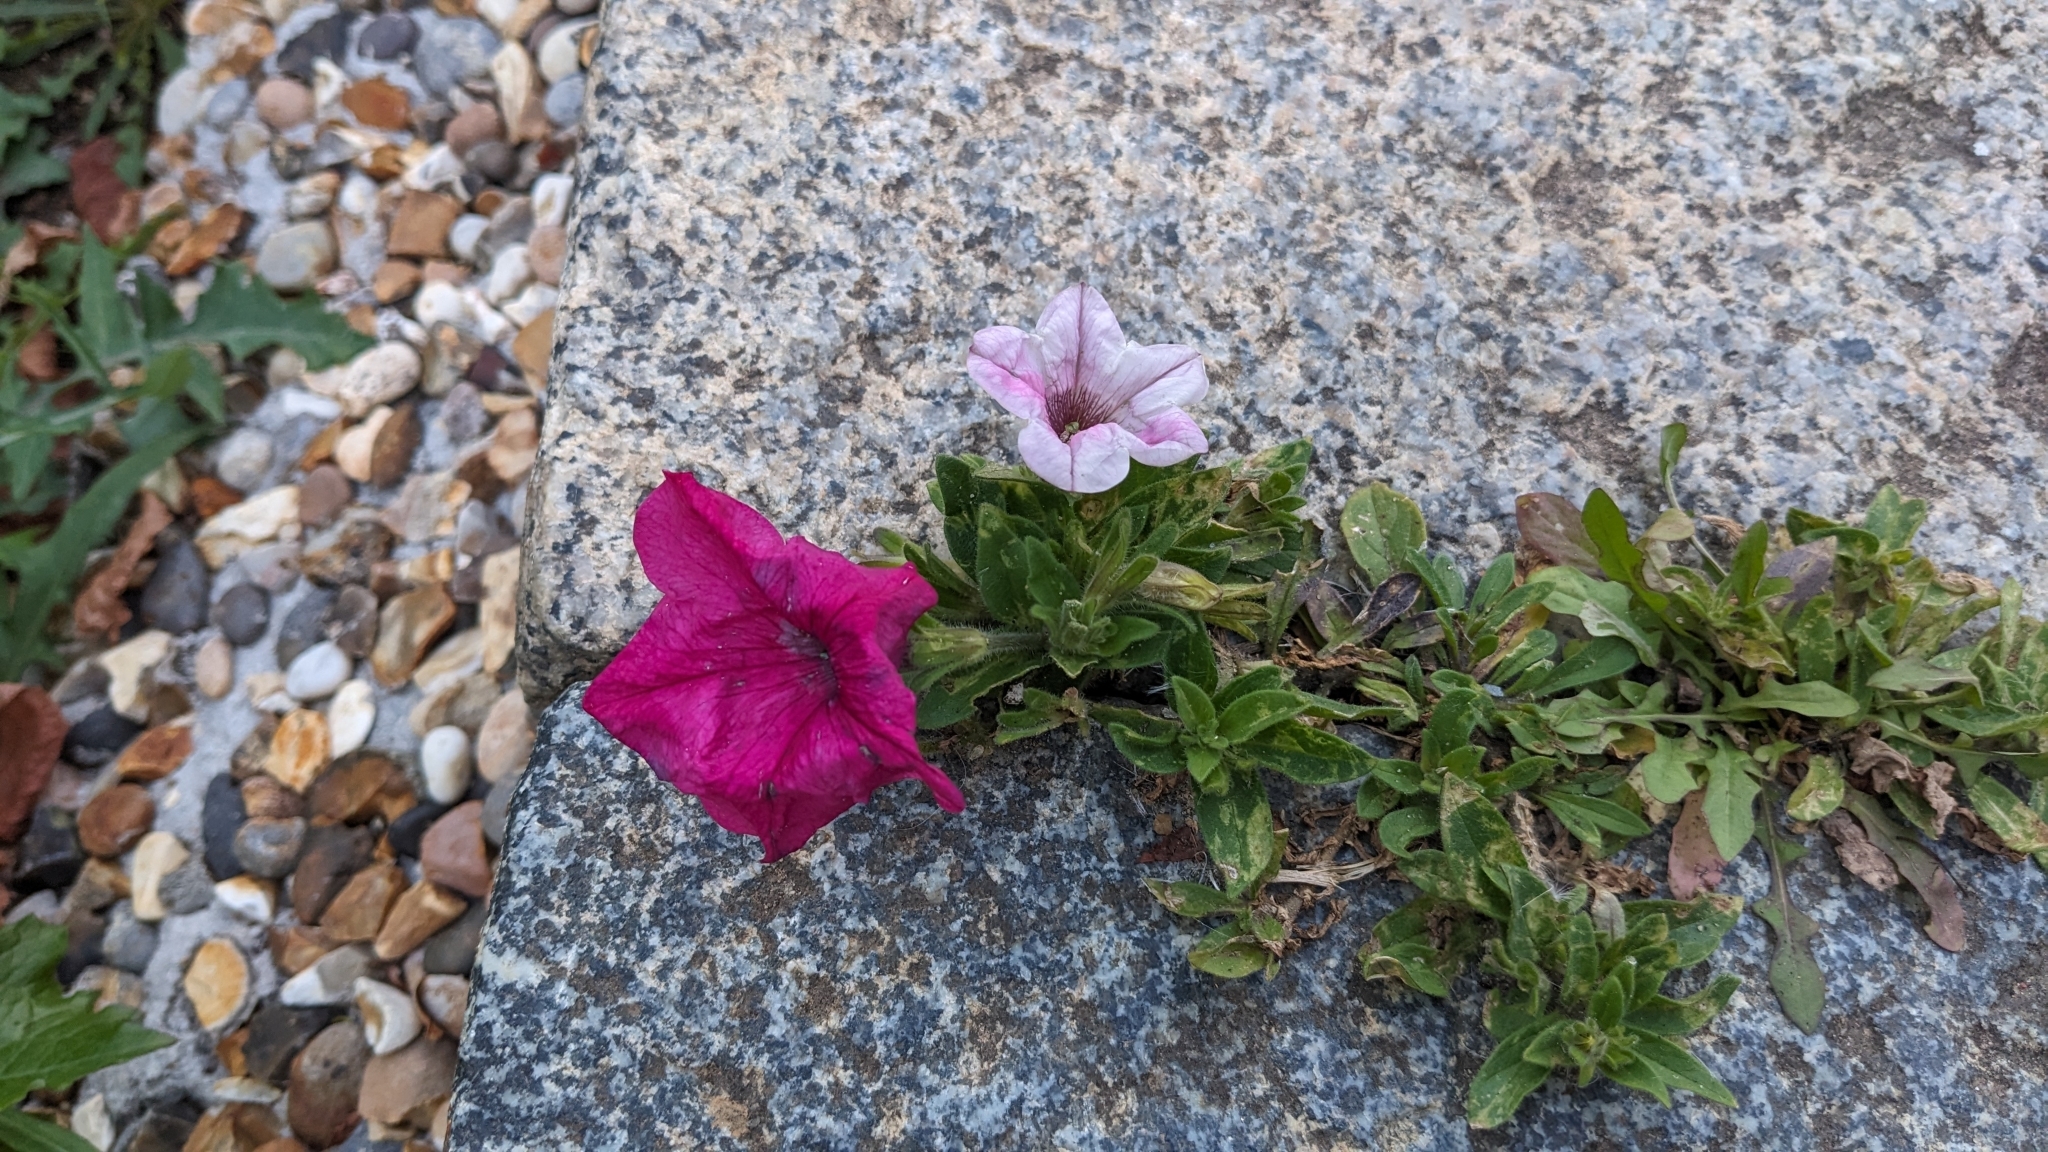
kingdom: Plantae
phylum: Tracheophyta
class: Magnoliopsida
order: Solanales
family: Solanaceae
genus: Petunia
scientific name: Petunia atkinsiana
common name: Petunia
